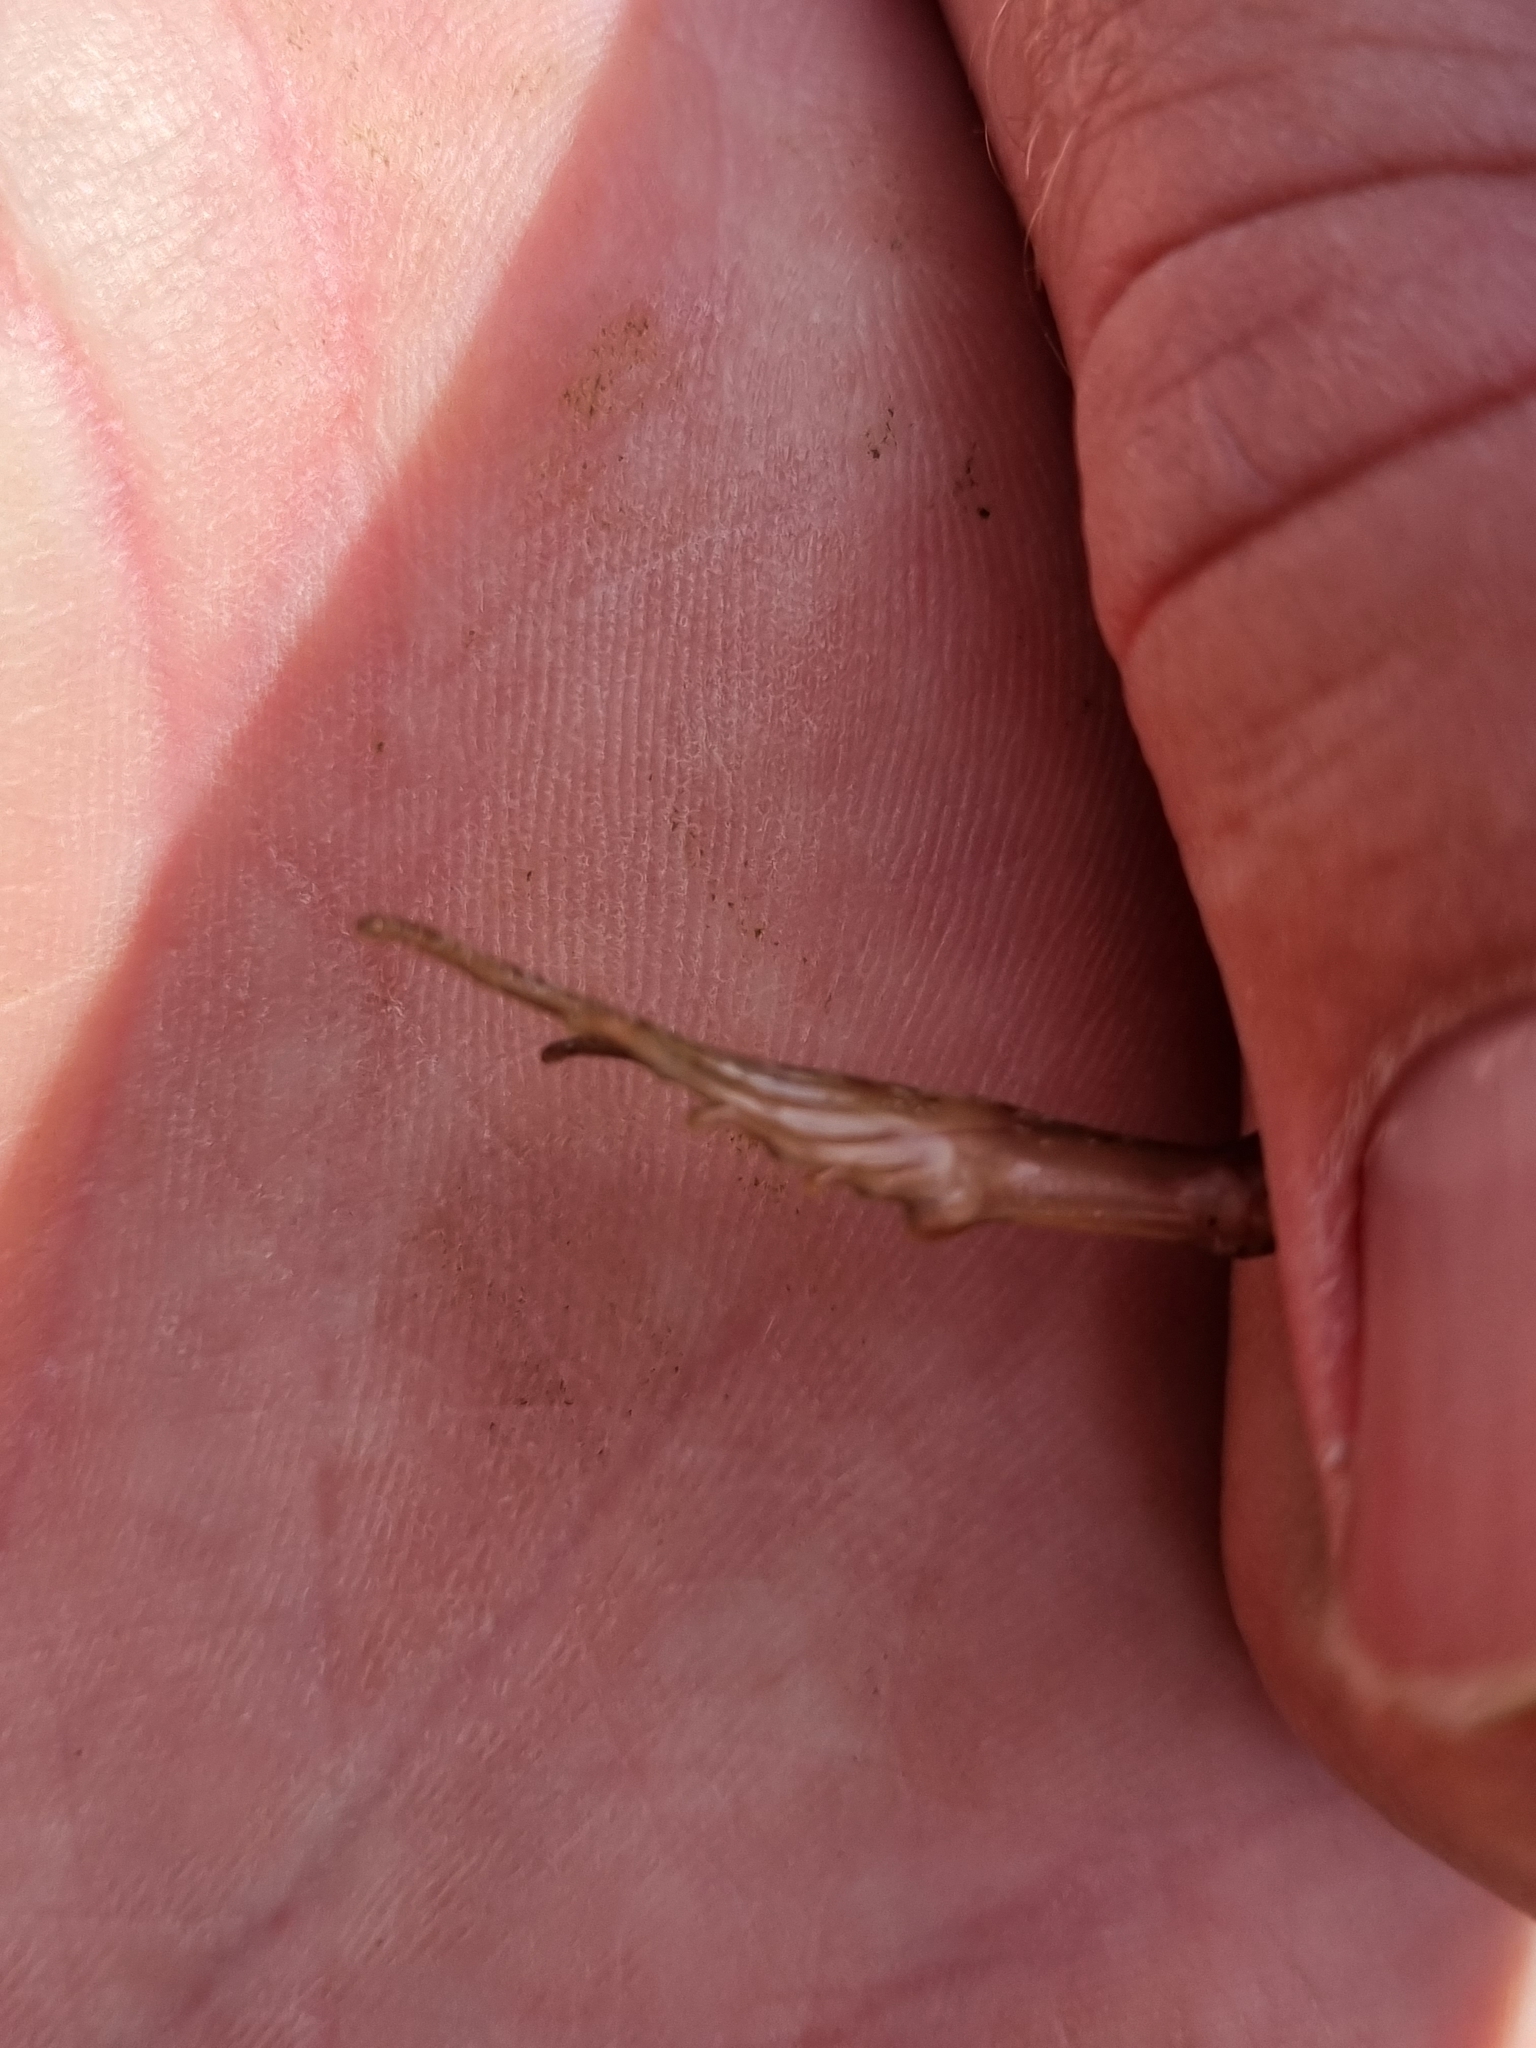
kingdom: Animalia
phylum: Chordata
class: Amphibia
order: Anura
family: Ranidae
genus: Rana
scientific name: Rana arvalis
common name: Moor frog
